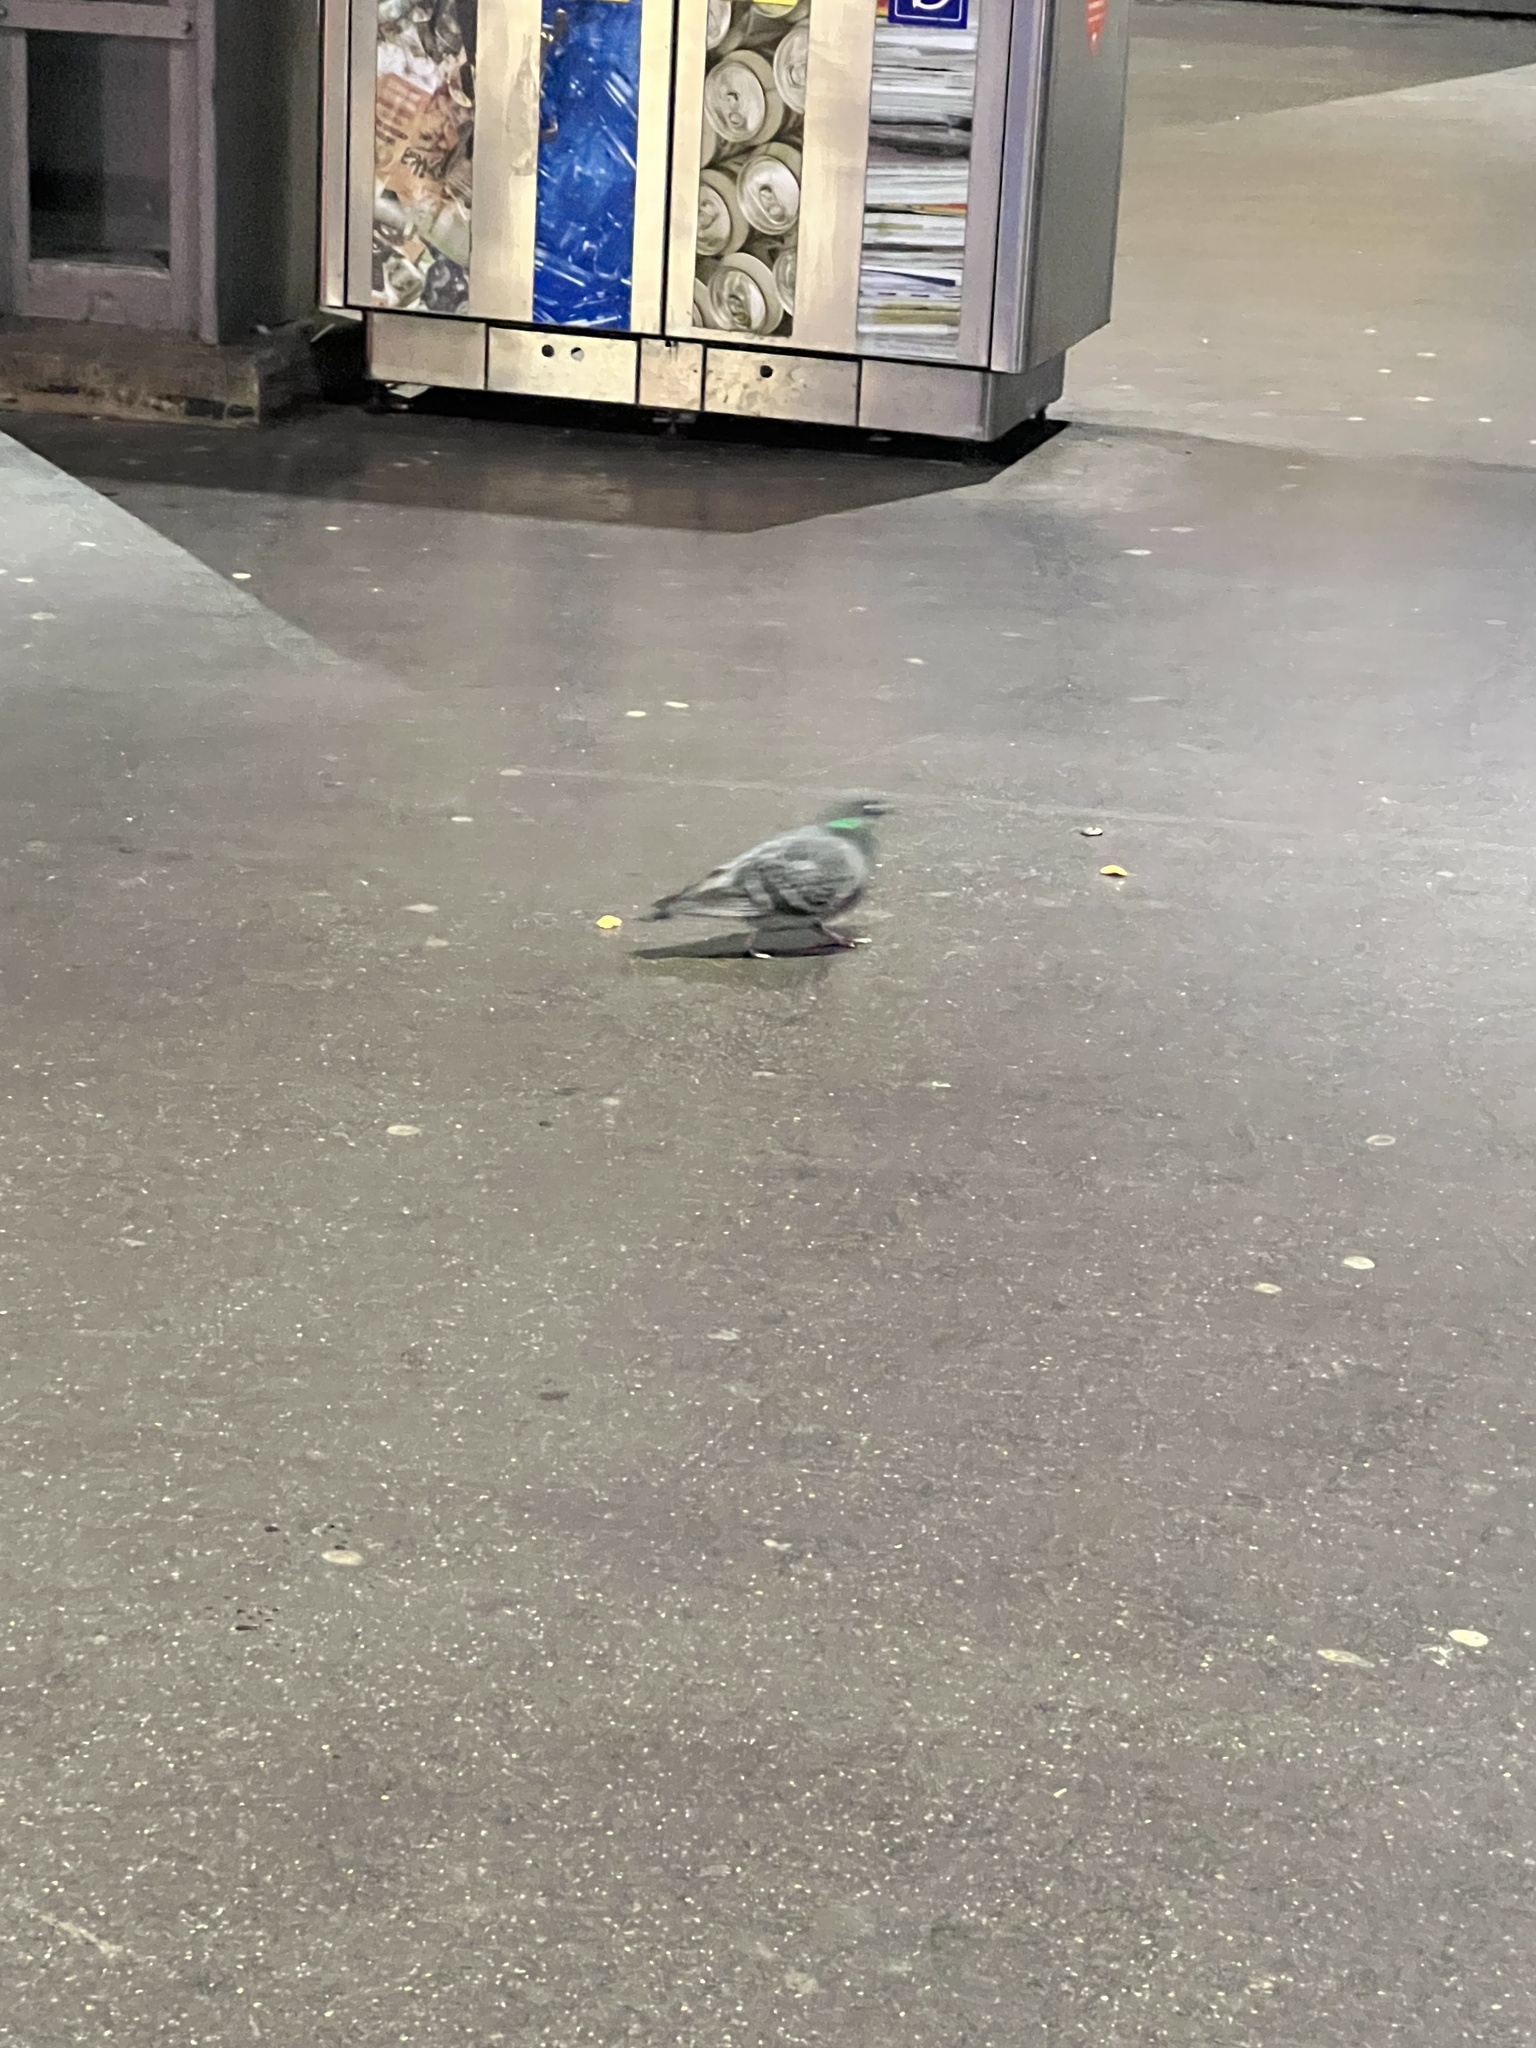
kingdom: Animalia
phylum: Chordata
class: Aves
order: Columbiformes
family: Columbidae
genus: Columba
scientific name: Columba livia
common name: Rock pigeon
